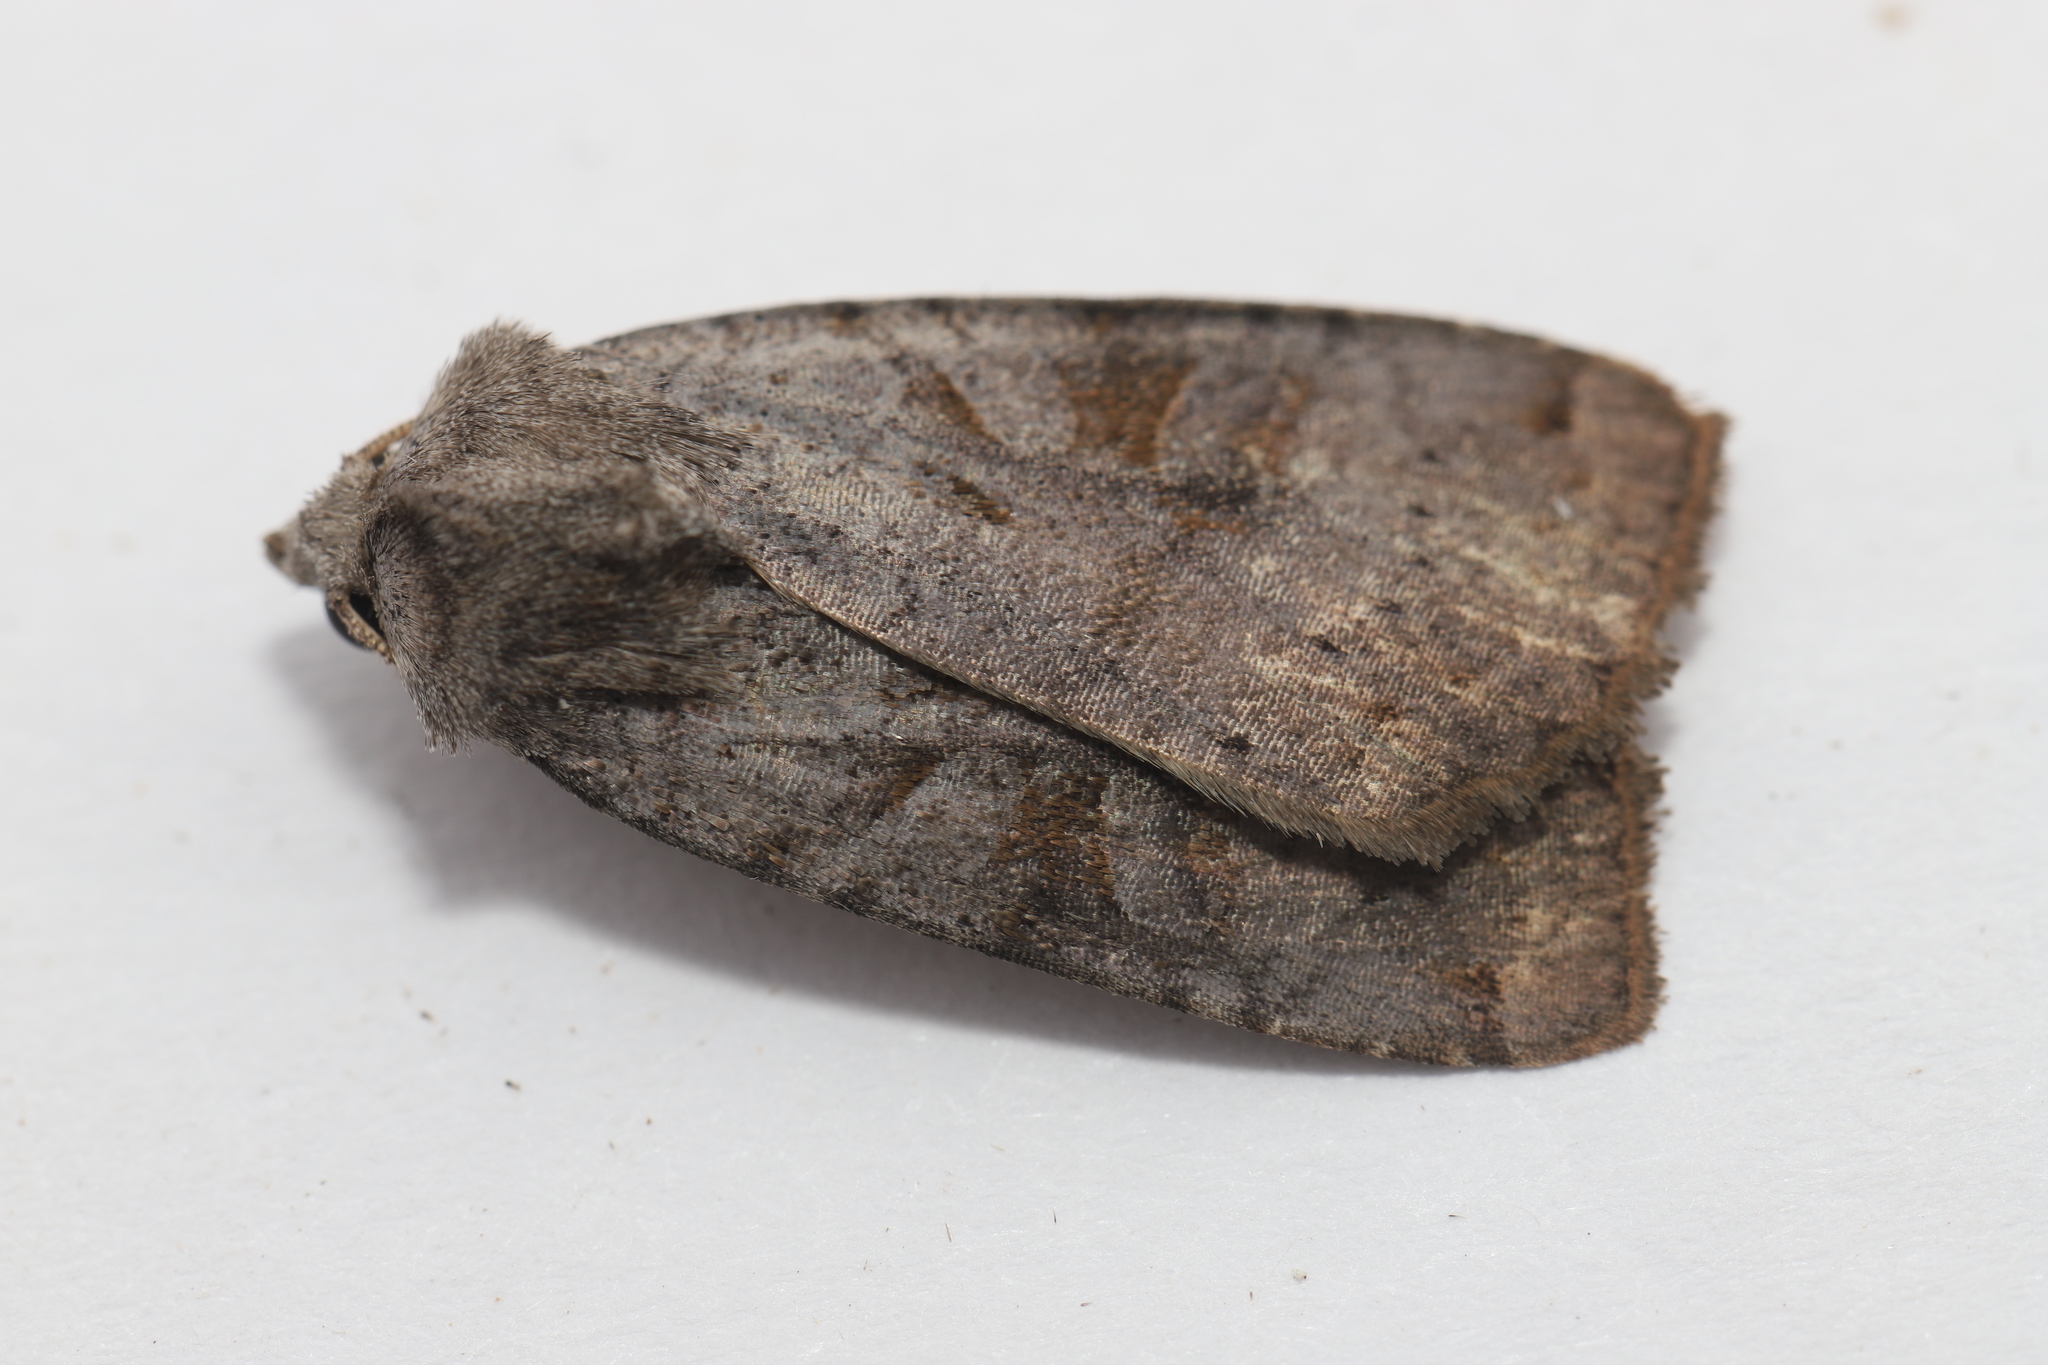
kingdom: Animalia
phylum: Arthropoda
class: Insecta
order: Lepidoptera
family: Noctuidae
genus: Xestia
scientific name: Xestia smithii
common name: Smith's dart
